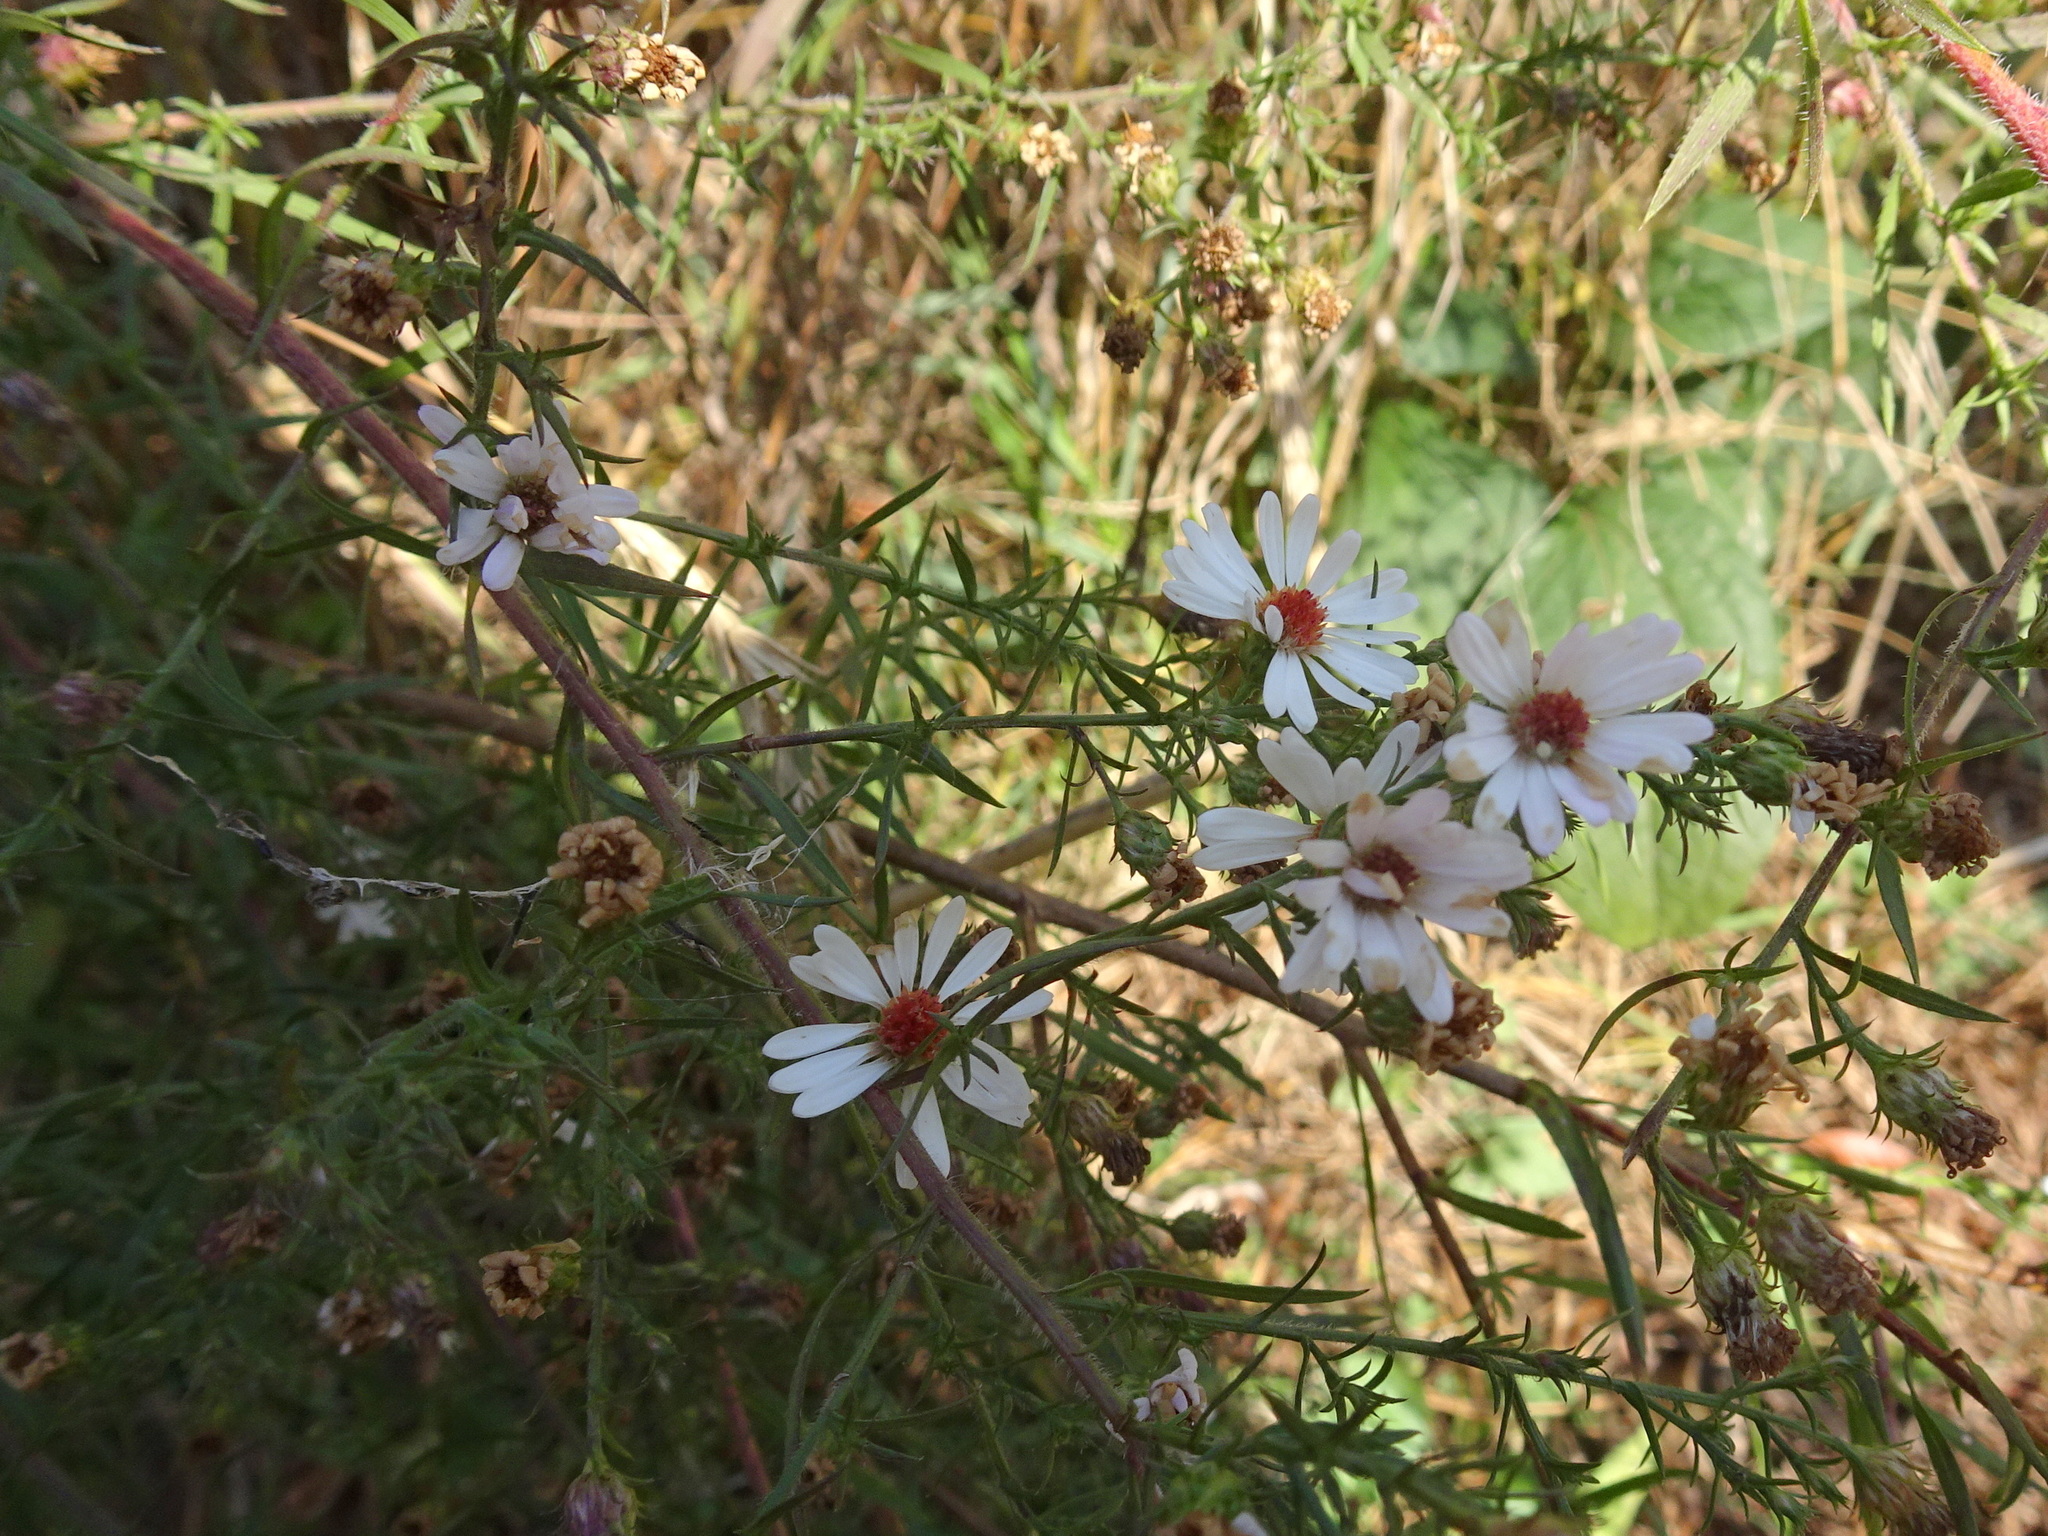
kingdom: Plantae
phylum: Tracheophyta
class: Magnoliopsida
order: Asterales
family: Asteraceae
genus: Symphyotrichum
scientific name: Symphyotrichum pilosum
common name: Awl aster
